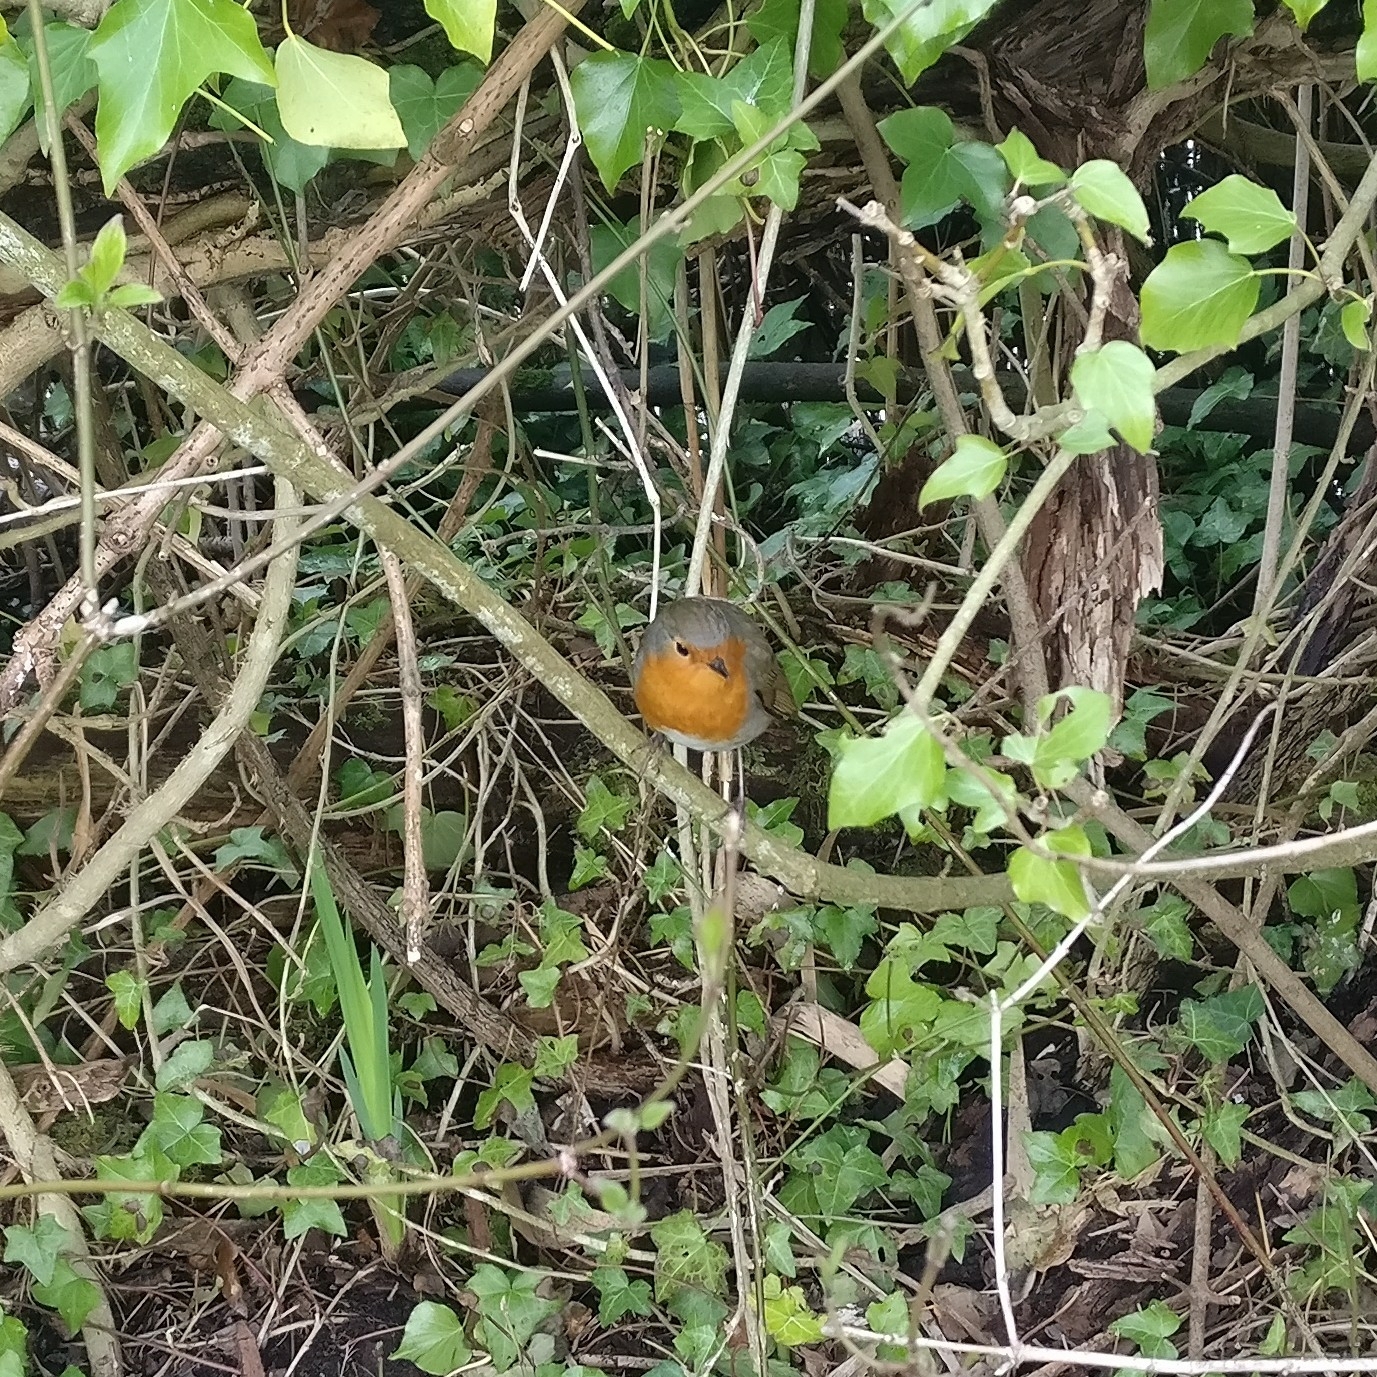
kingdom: Animalia
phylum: Chordata
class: Aves
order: Passeriformes
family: Muscicapidae
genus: Erithacus
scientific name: Erithacus rubecula
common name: European robin
